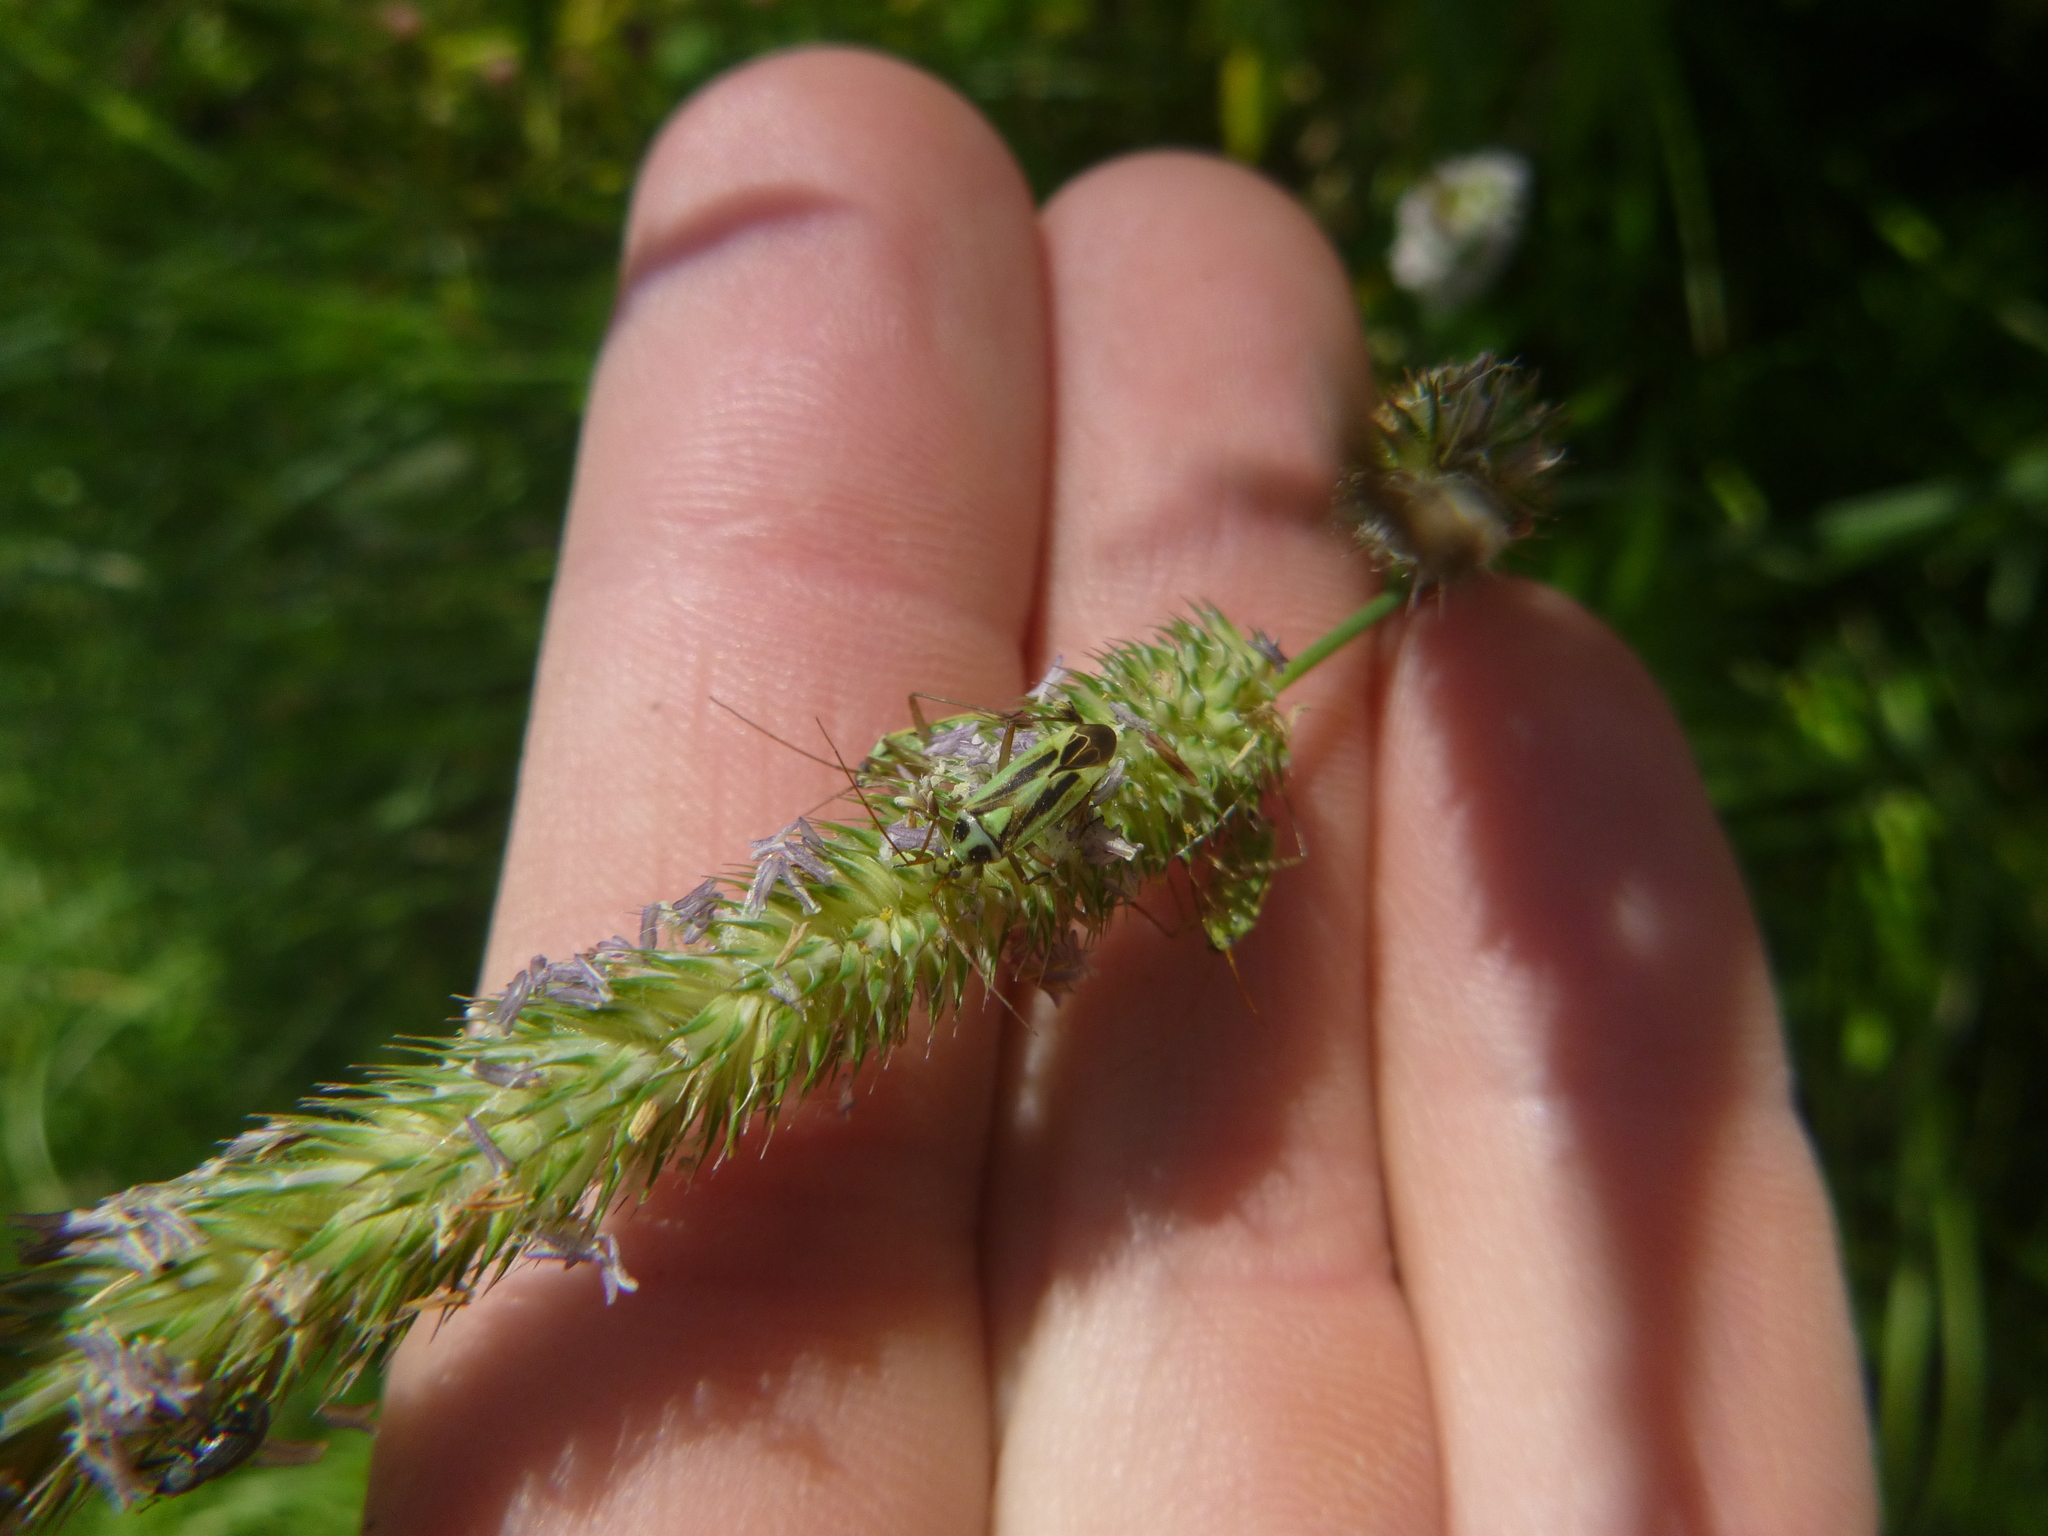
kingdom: Animalia
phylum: Arthropoda
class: Insecta
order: Hemiptera
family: Miridae
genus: Stenotus
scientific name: Stenotus binotatus
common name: Plant bug
